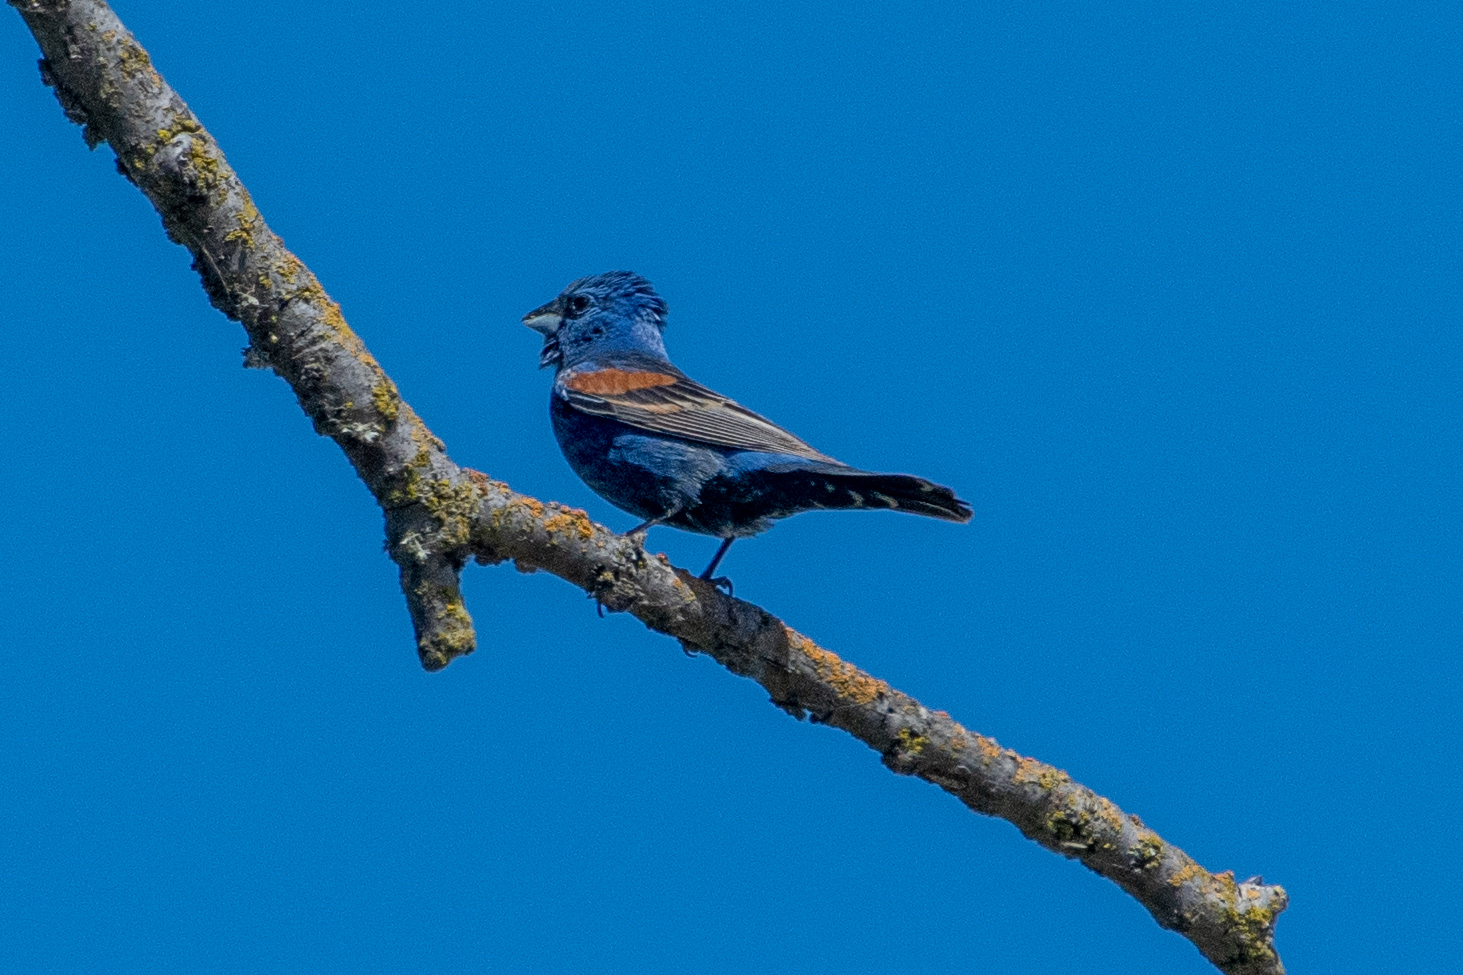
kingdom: Animalia
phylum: Chordata
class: Aves
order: Passeriformes
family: Cardinalidae
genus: Passerina
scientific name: Passerina caerulea
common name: Blue grosbeak
